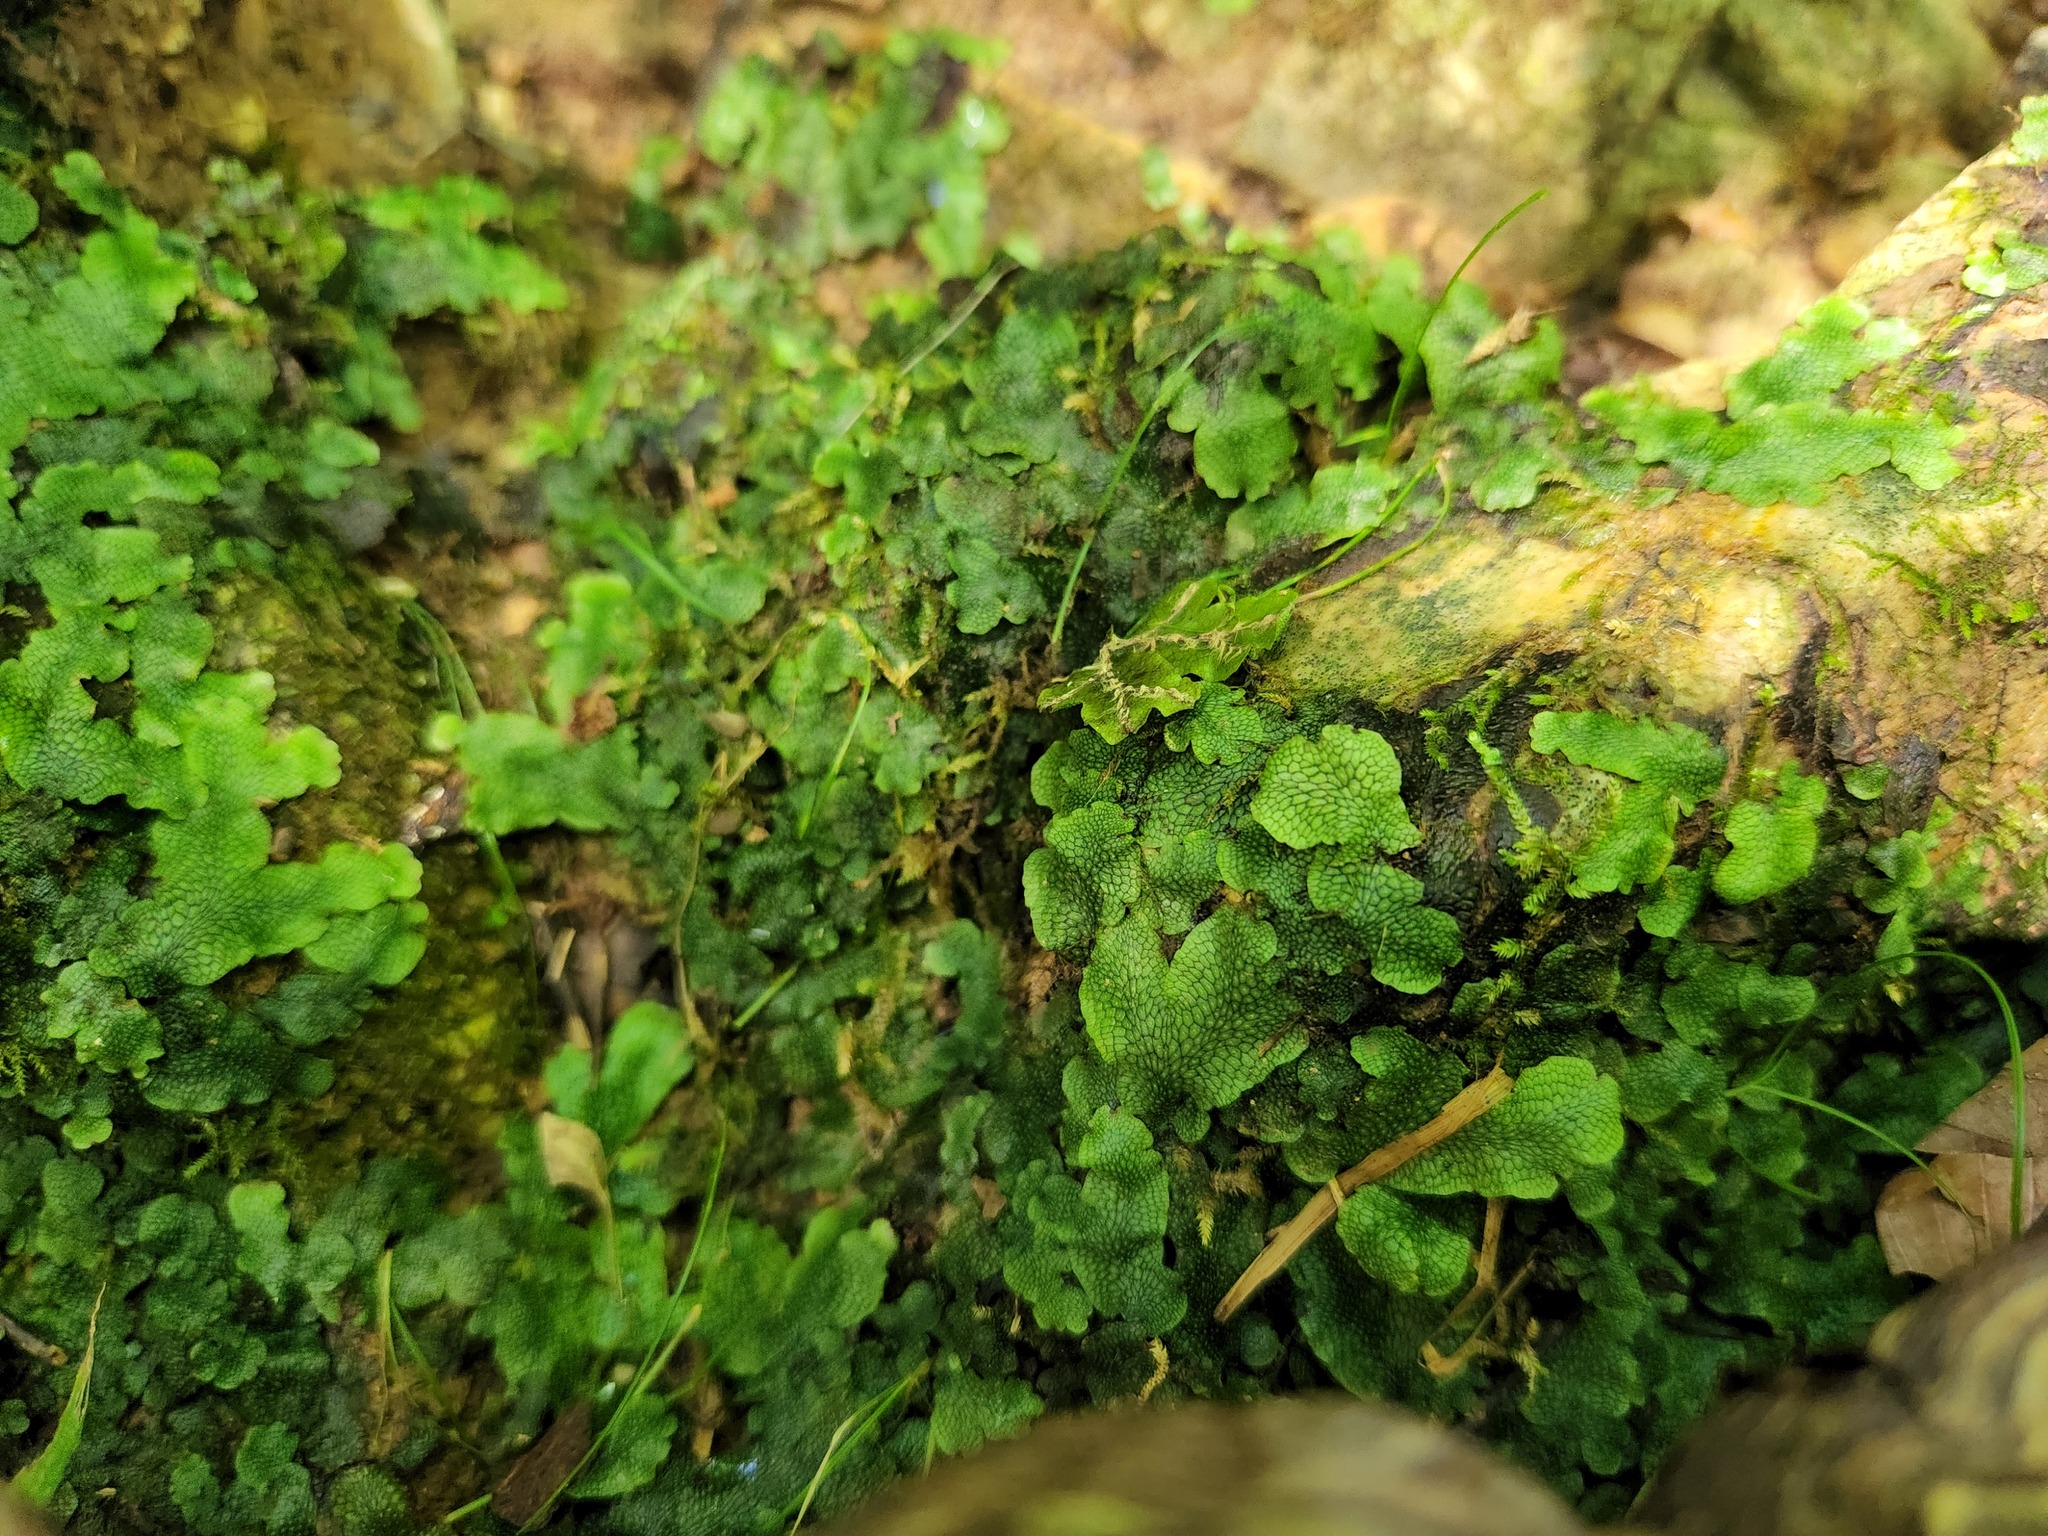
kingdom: Plantae
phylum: Marchantiophyta
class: Marchantiopsida
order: Marchantiales
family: Conocephalaceae
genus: Conocephalum
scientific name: Conocephalum salebrosum
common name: Cat-tongue liverwort
